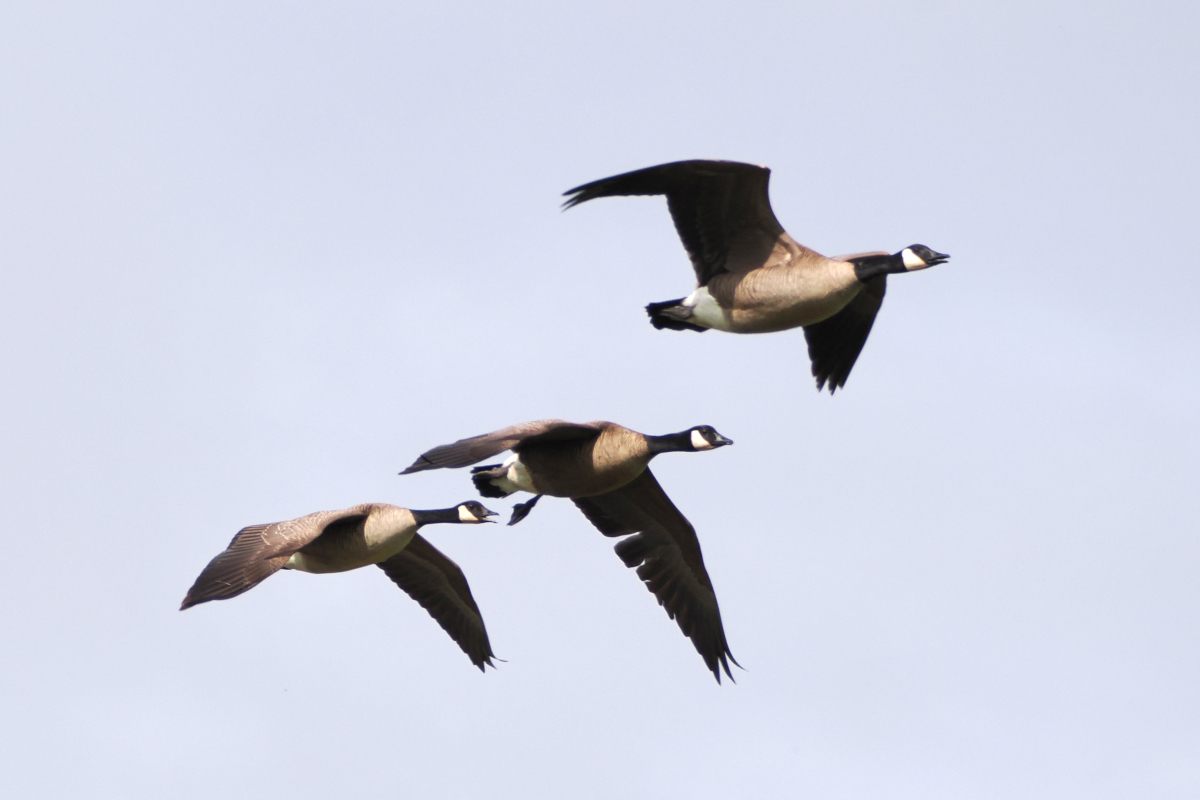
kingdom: Animalia
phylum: Chordata
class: Aves
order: Anseriformes
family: Anatidae
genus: Branta
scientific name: Branta canadensis
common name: Canada goose
